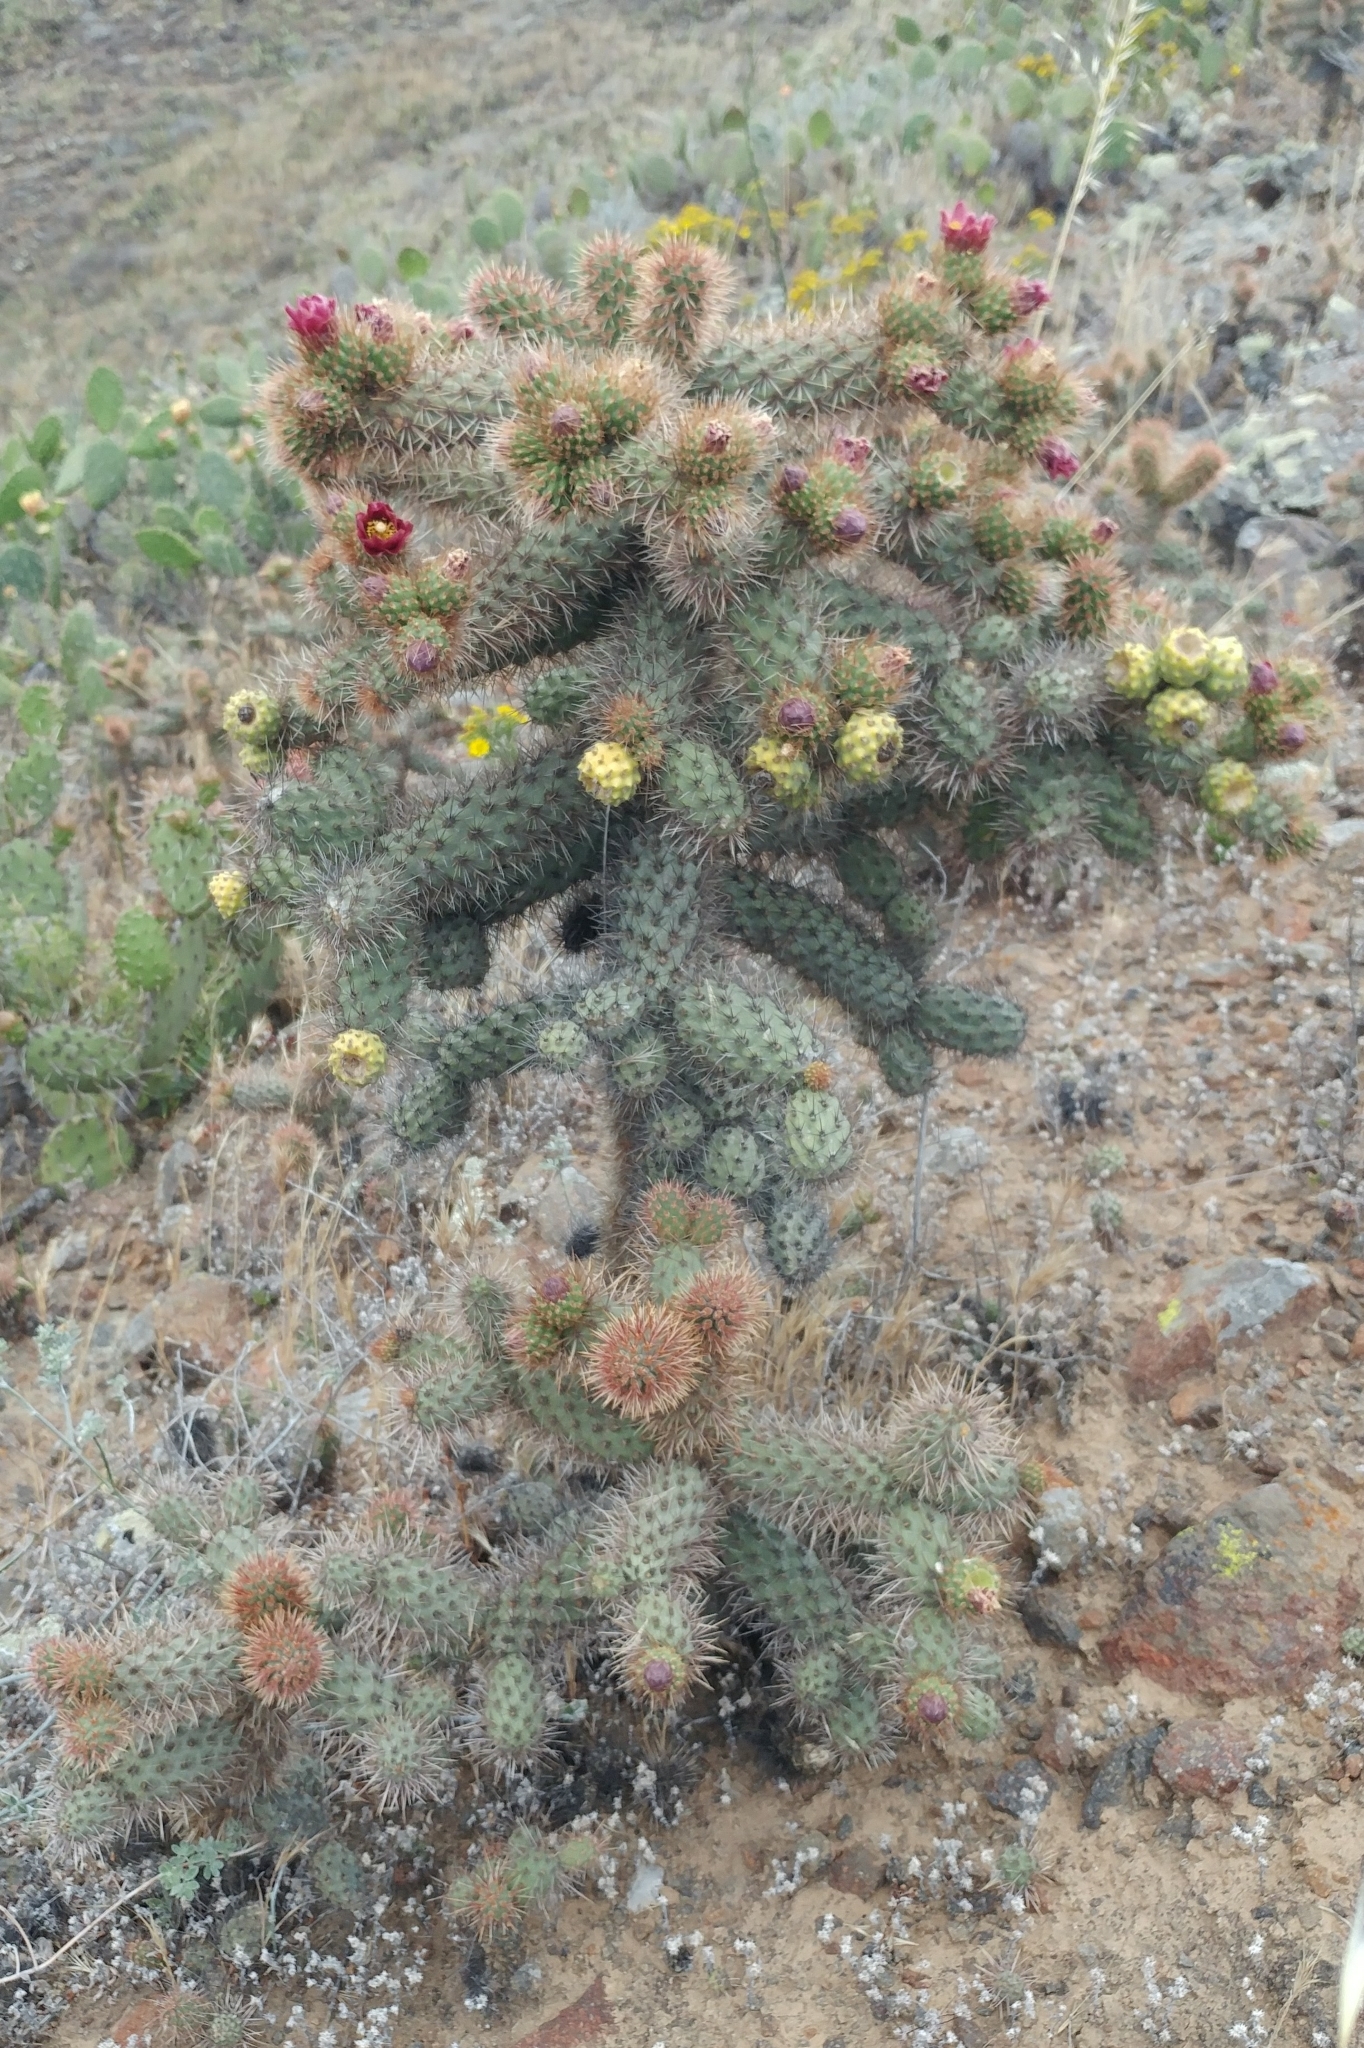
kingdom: Plantae
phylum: Tracheophyta
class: Magnoliopsida
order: Caryophyllales
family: Cactaceae
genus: Cylindropuntia
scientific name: Cylindropuntia prolifera
